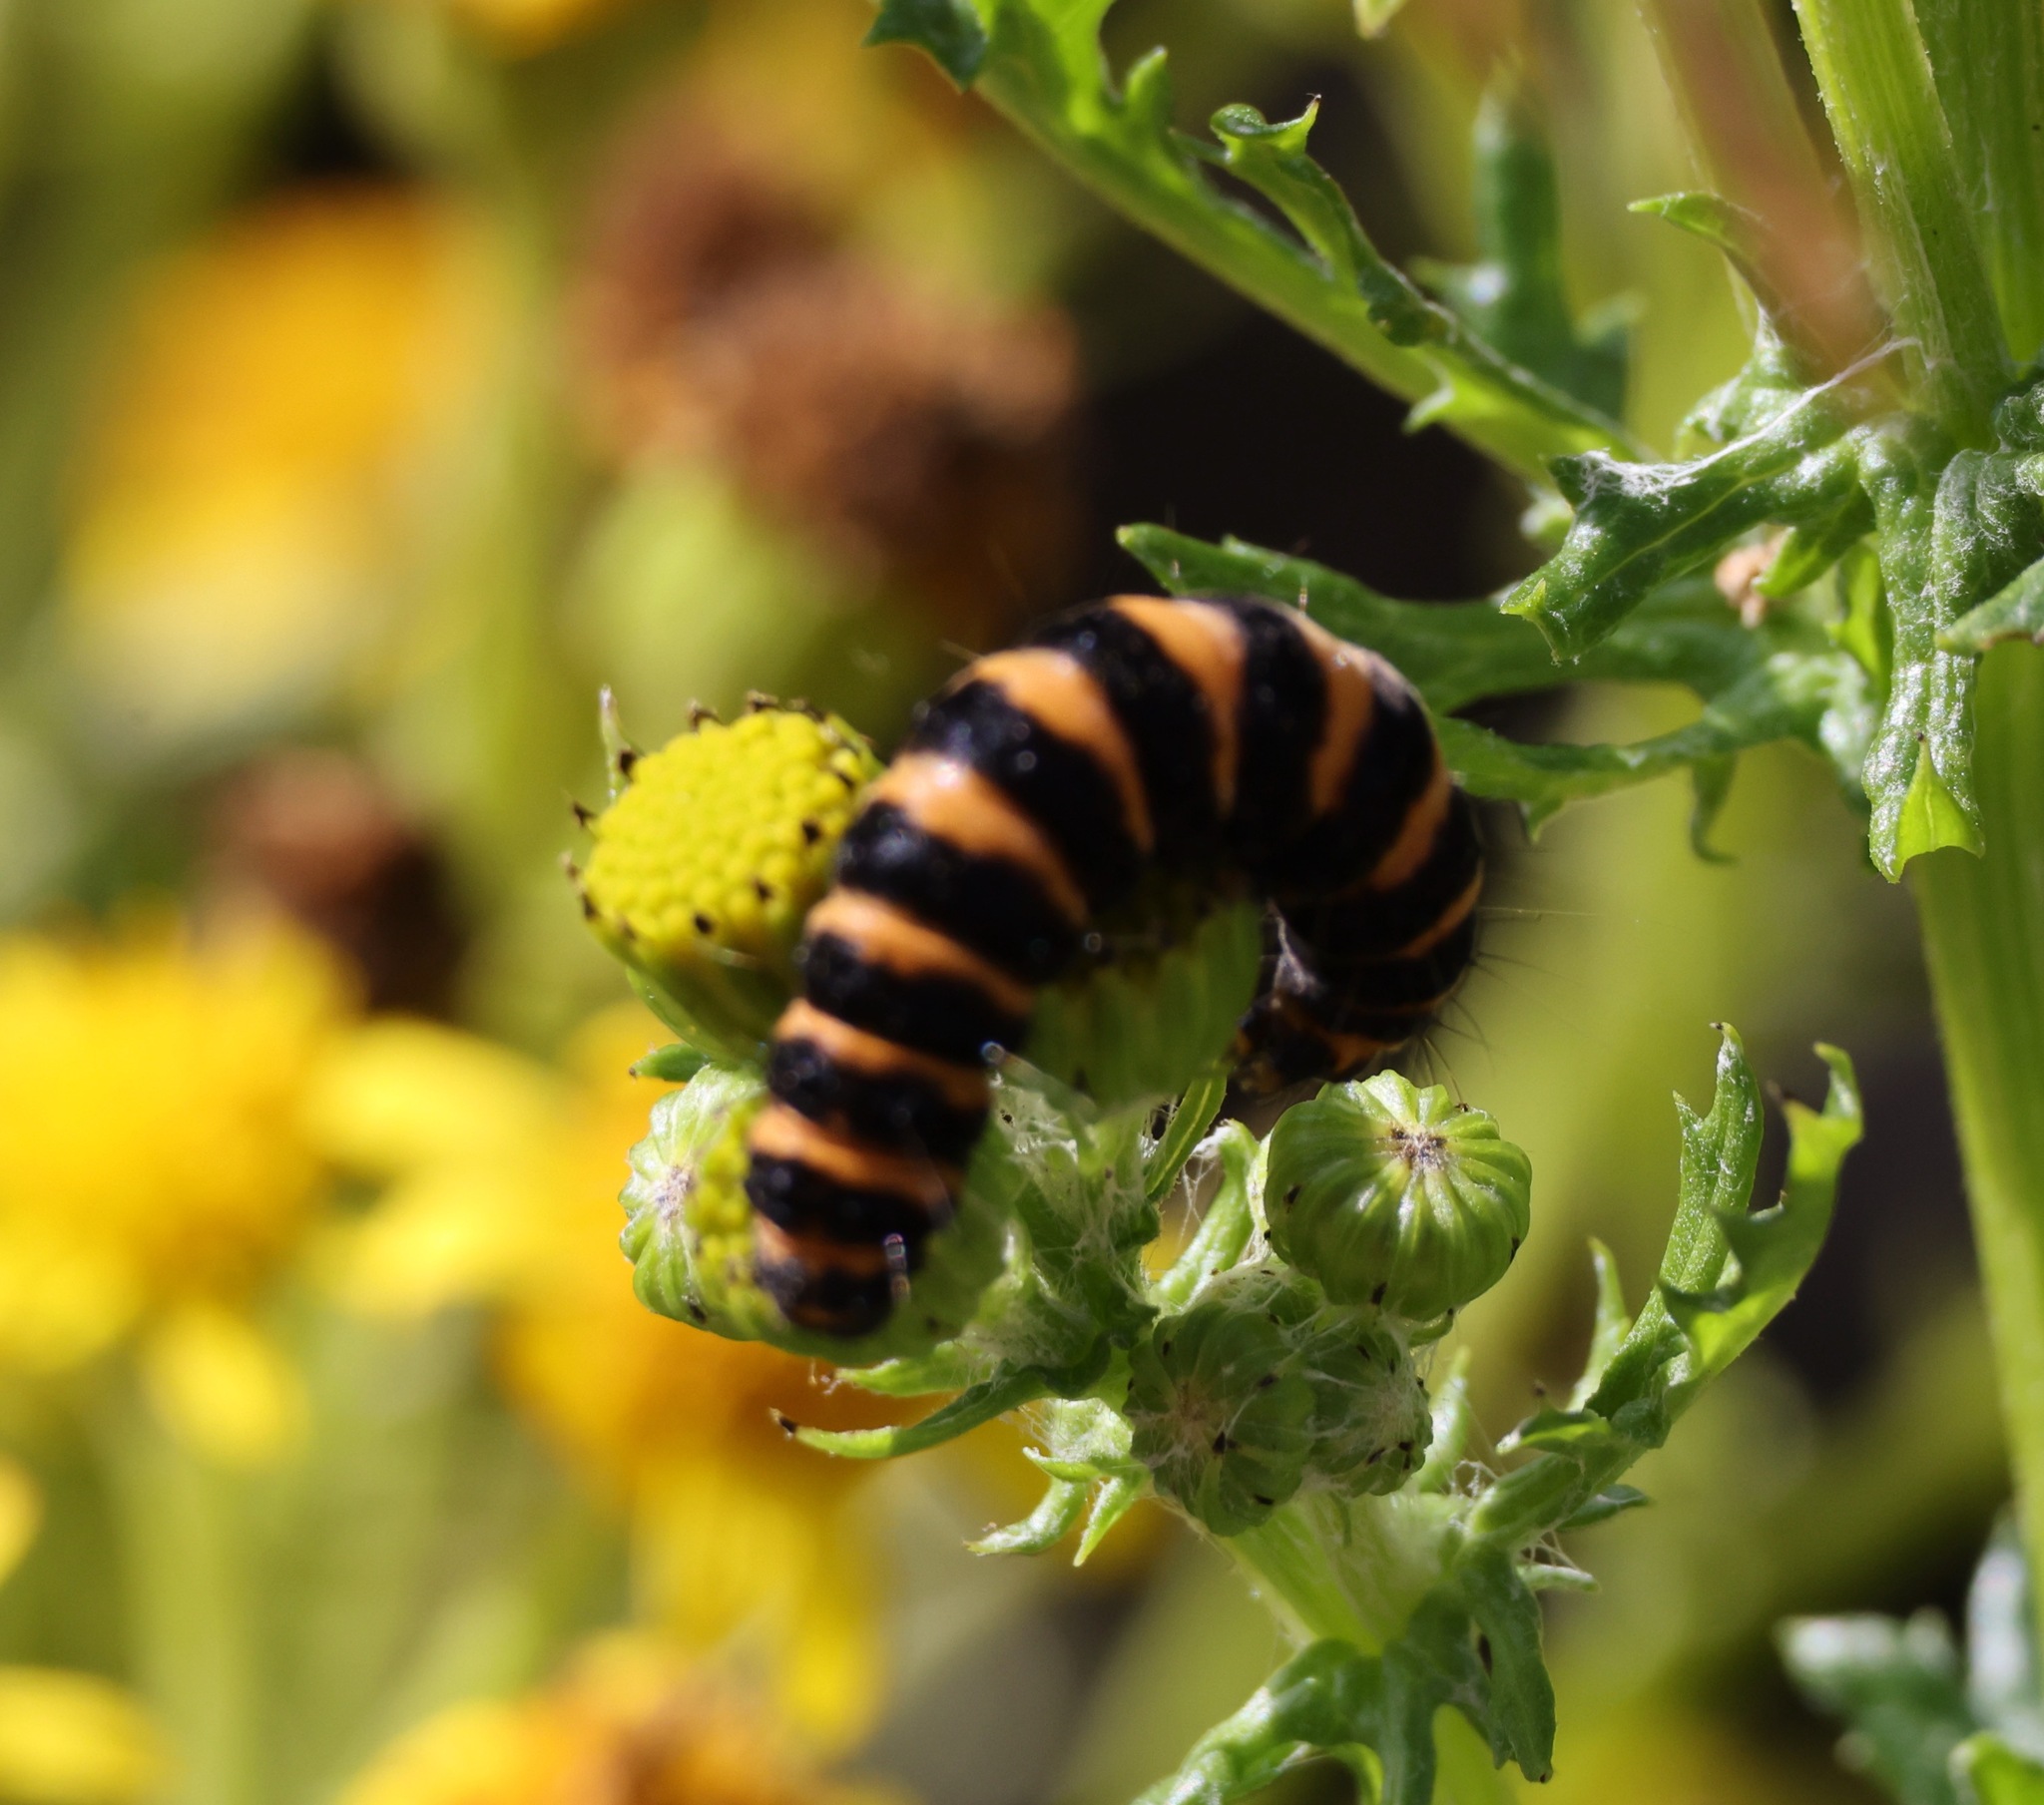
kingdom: Animalia
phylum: Arthropoda
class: Insecta
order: Lepidoptera
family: Erebidae
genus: Tyria
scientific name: Tyria jacobaeae
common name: Cinnabar
